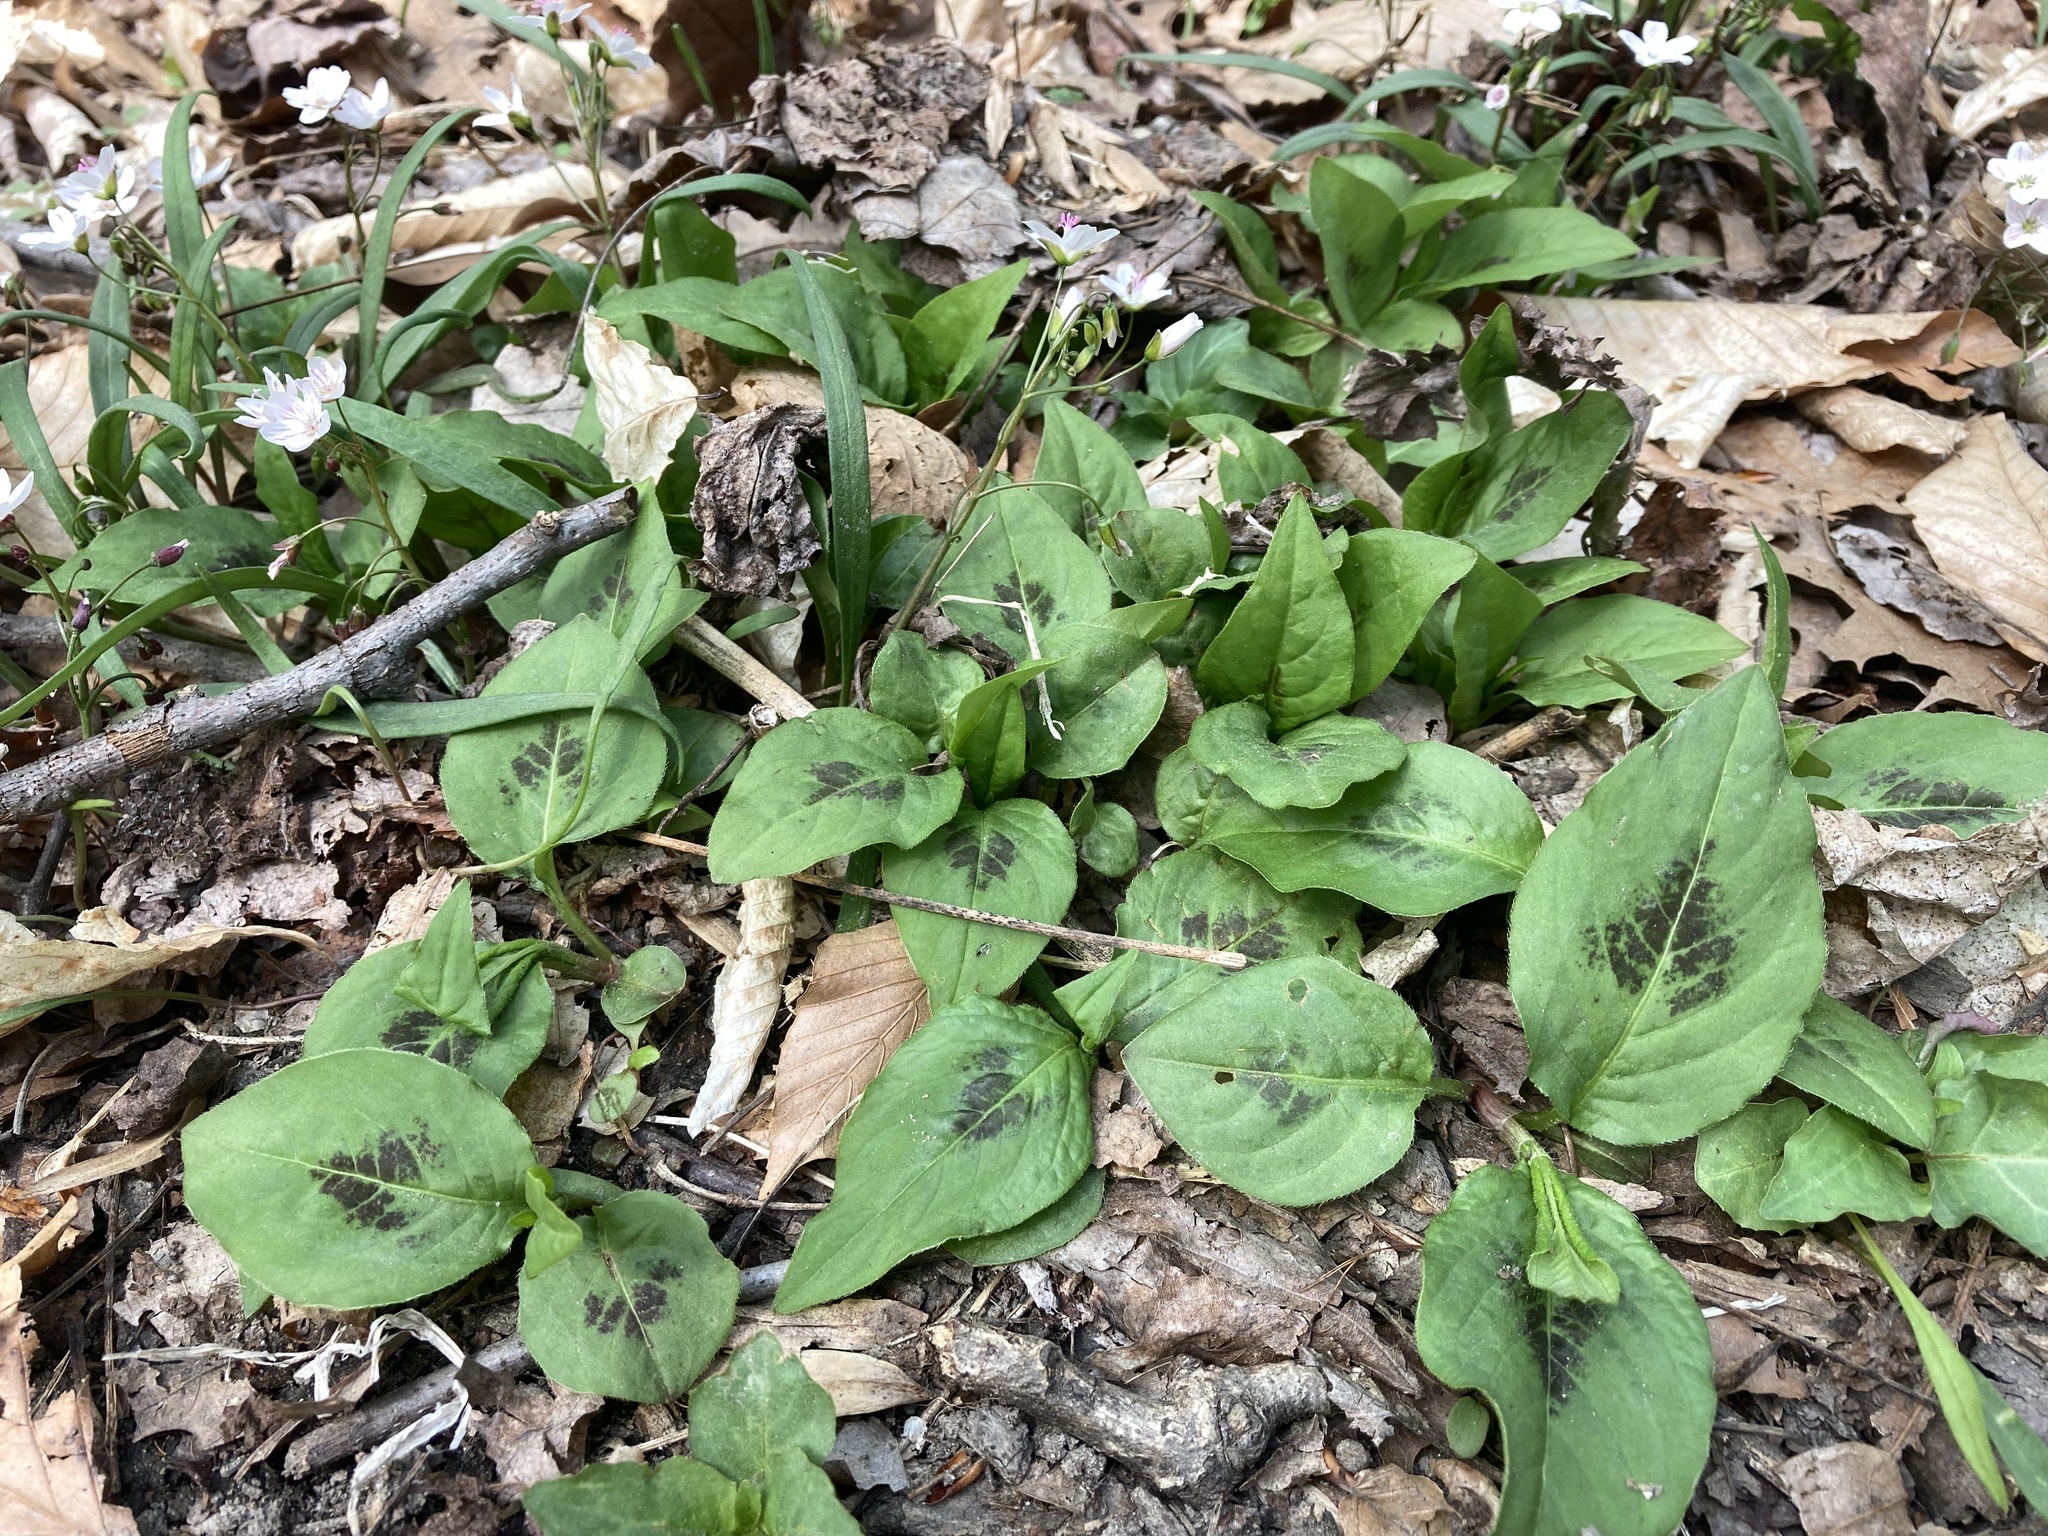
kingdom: Plantae
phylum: Tracheophyta
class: Magnoliopsida
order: Caryophyllales
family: Polygonaceae
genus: Persicaria
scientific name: Persicaria virginiana
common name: Jumpseed
